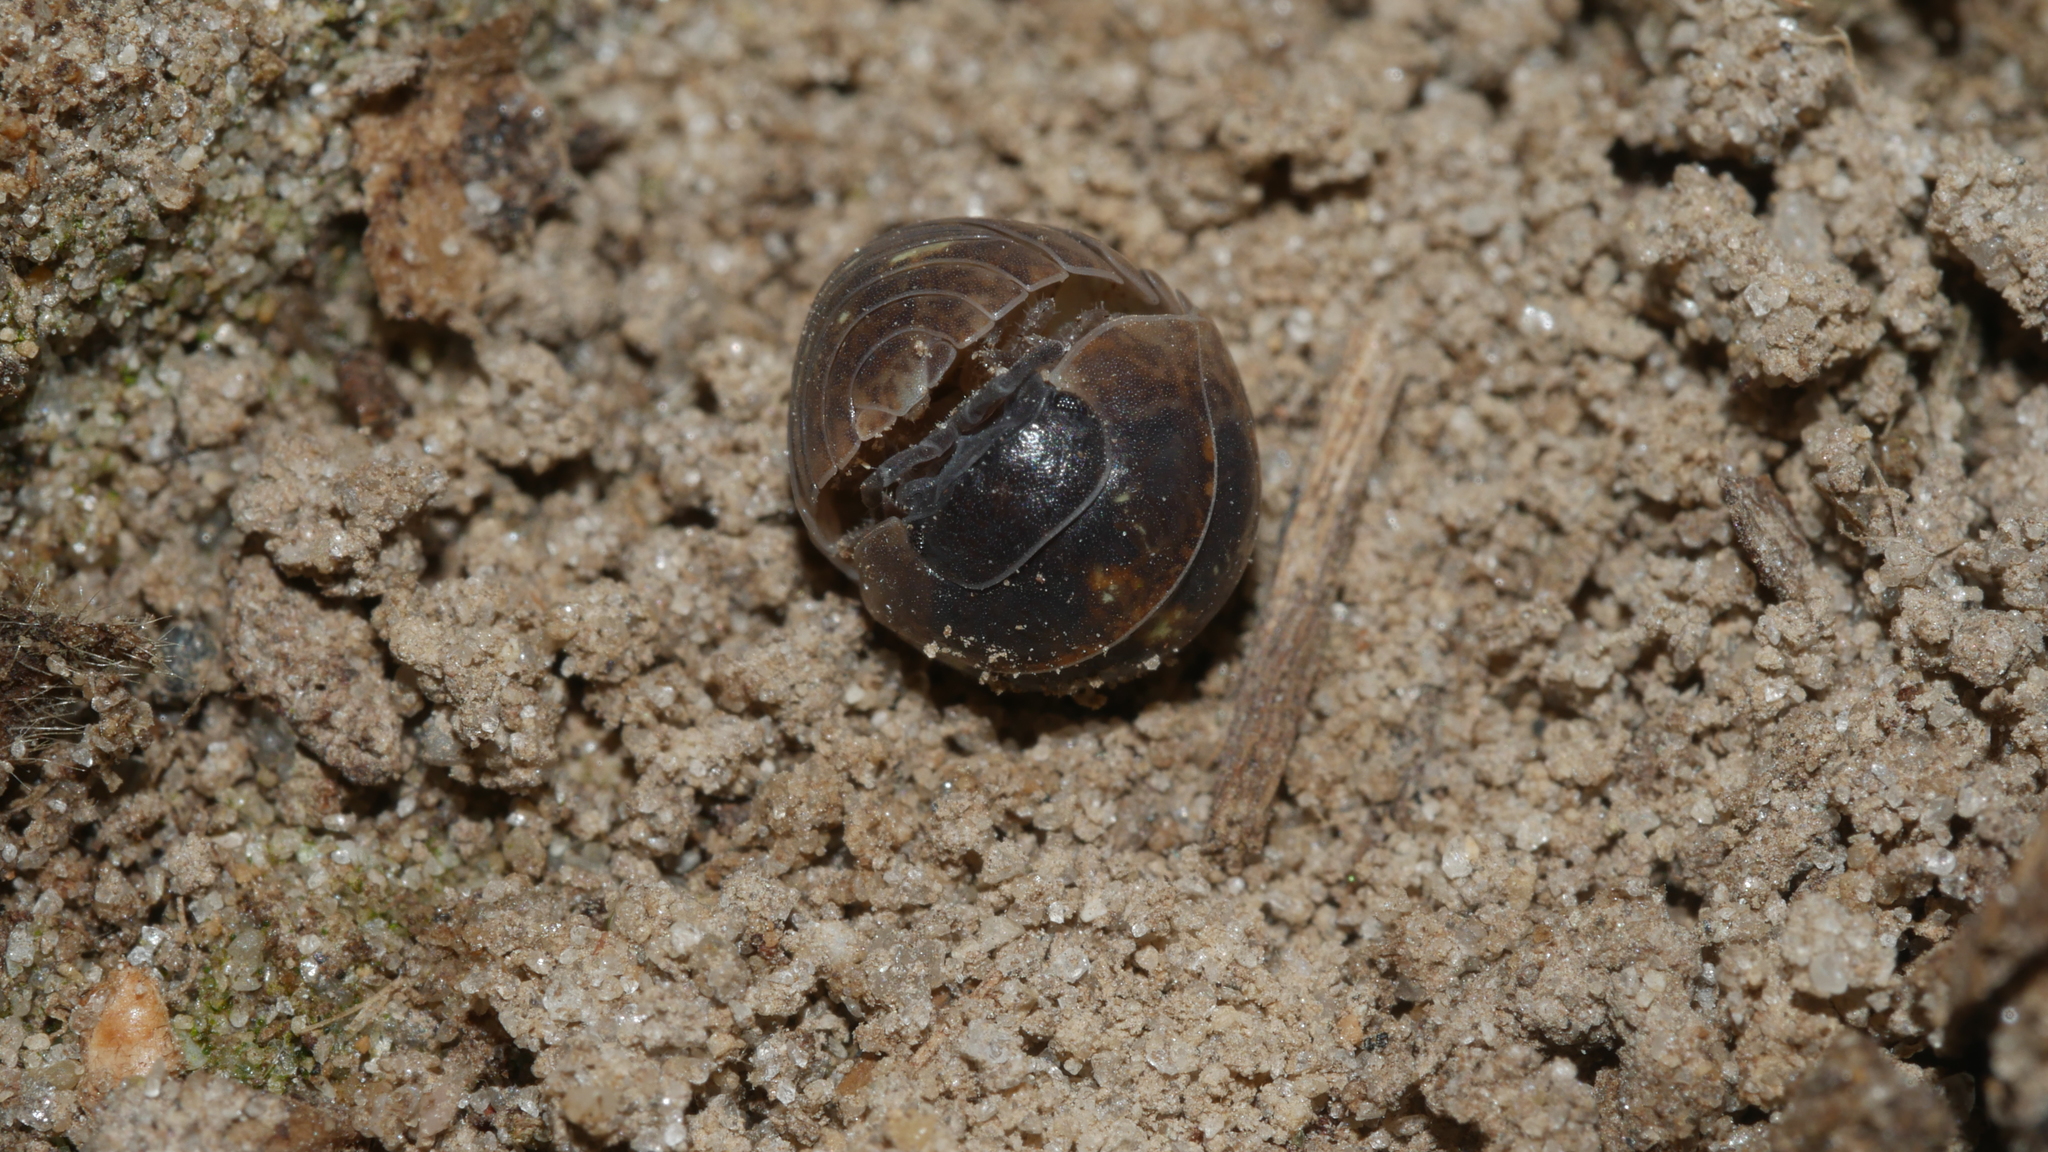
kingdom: Animalia
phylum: Arthropoda
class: Malacostraca
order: Isopoda
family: Armadillidiidae
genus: Armadillidium
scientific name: Armadillidium vulgare
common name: Common pill woodlouse
